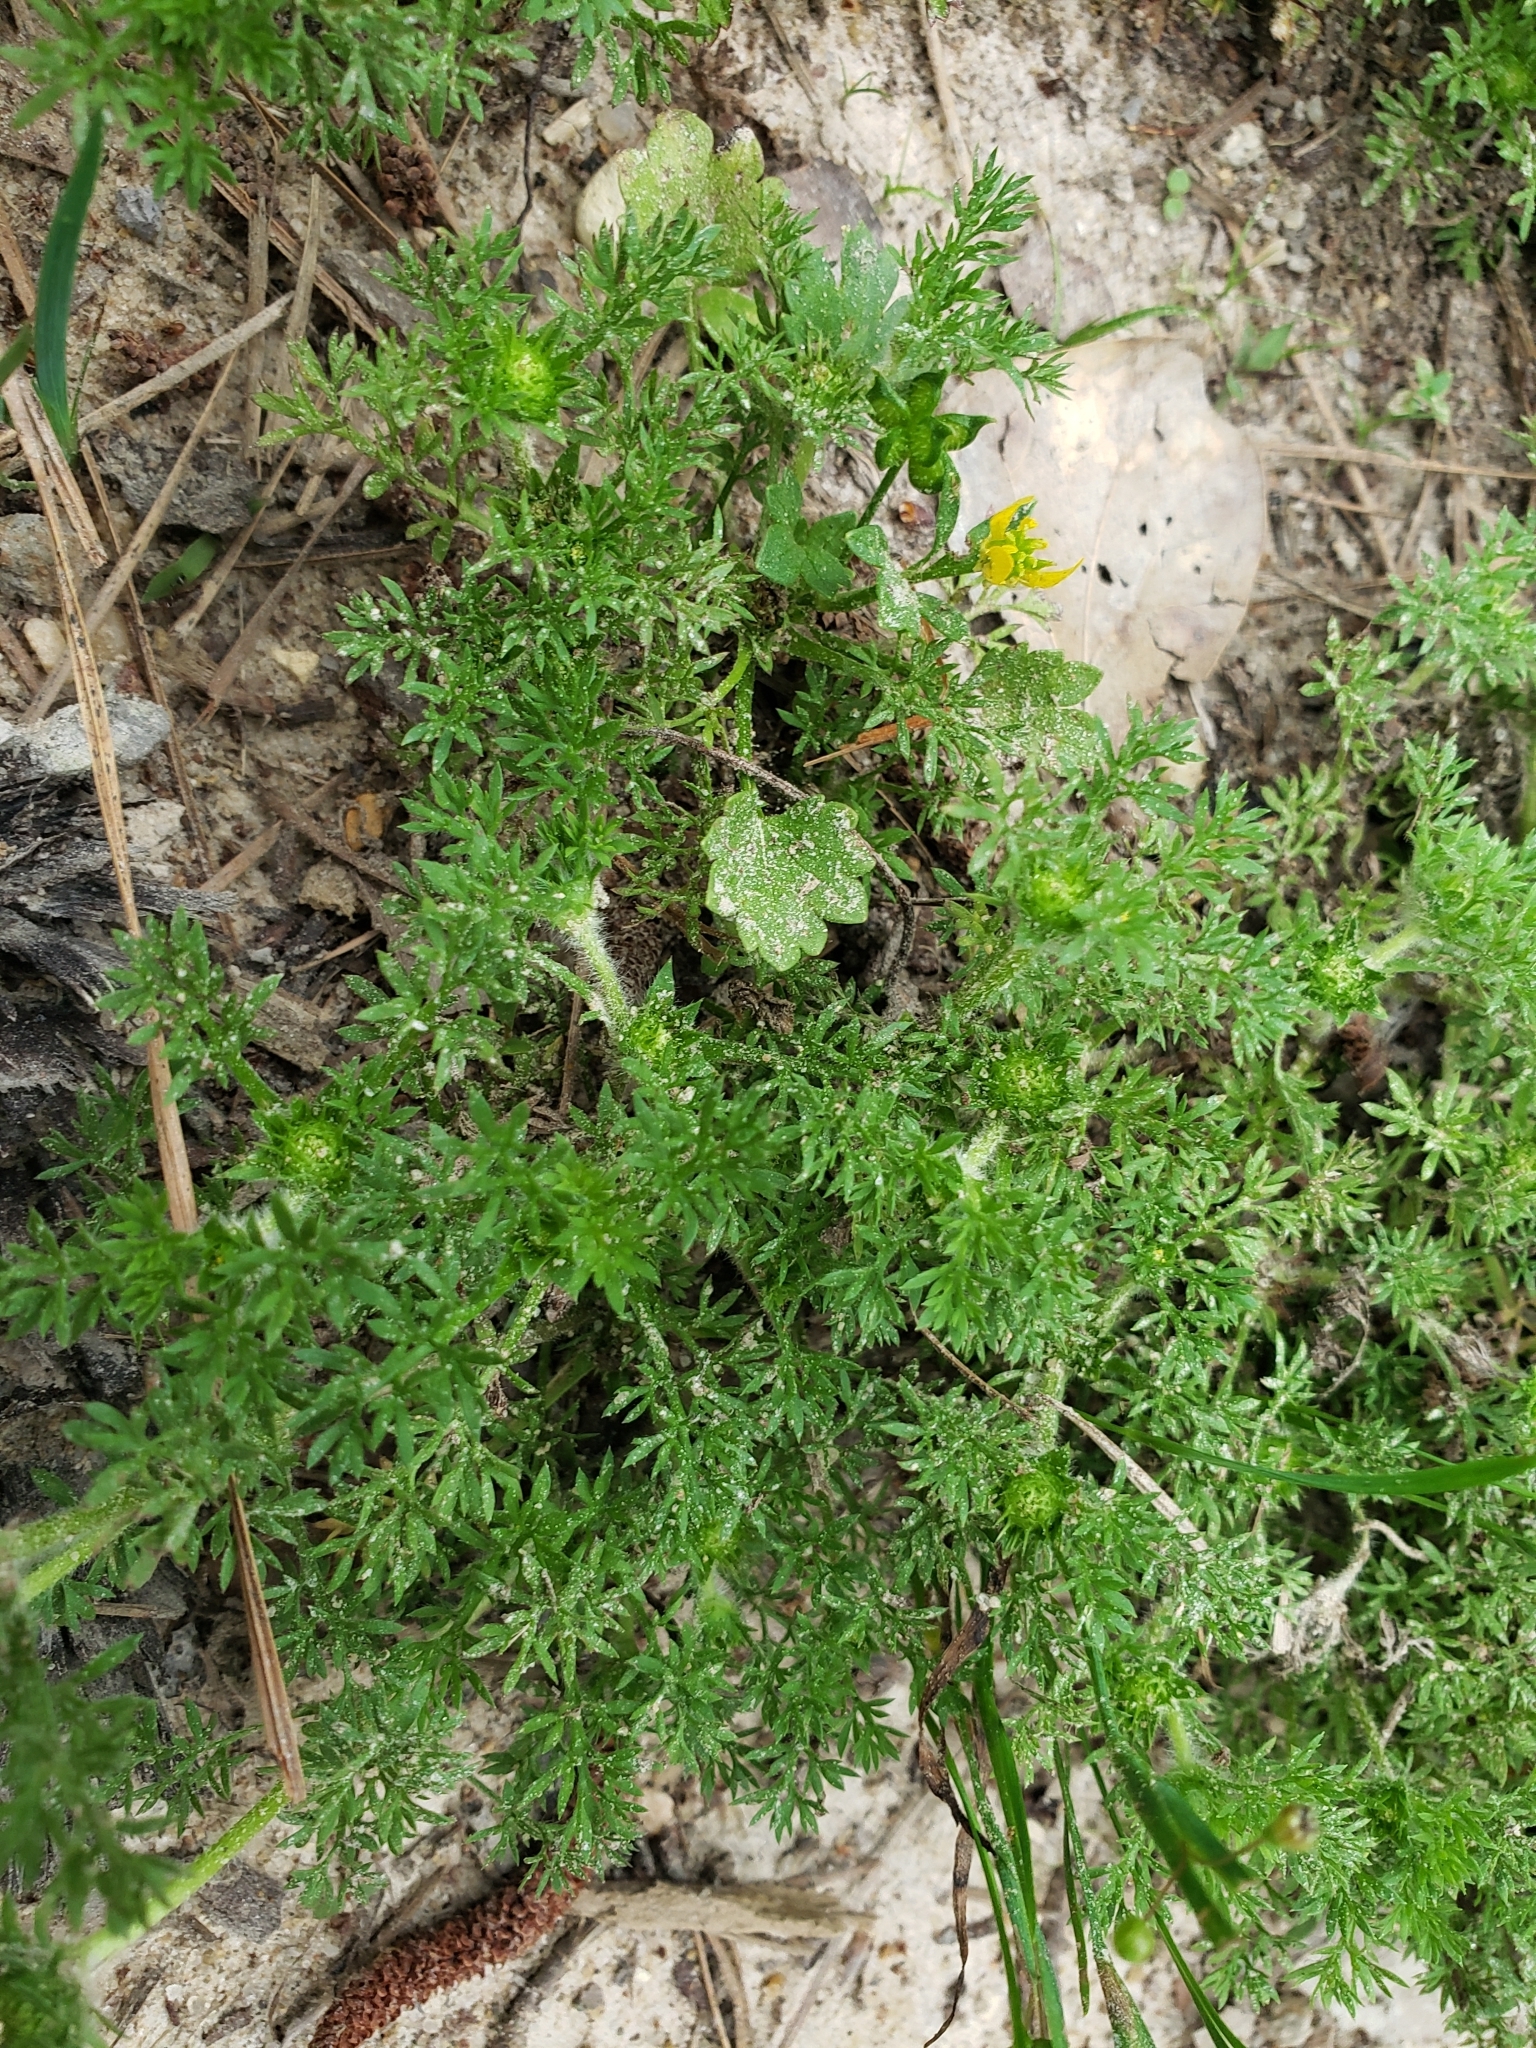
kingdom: Plantae
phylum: Tracheophyta
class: Magnoliopsida
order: Asterales
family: Asteraceae
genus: Soliva
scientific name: Soliva sessilis
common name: Field burrweed
